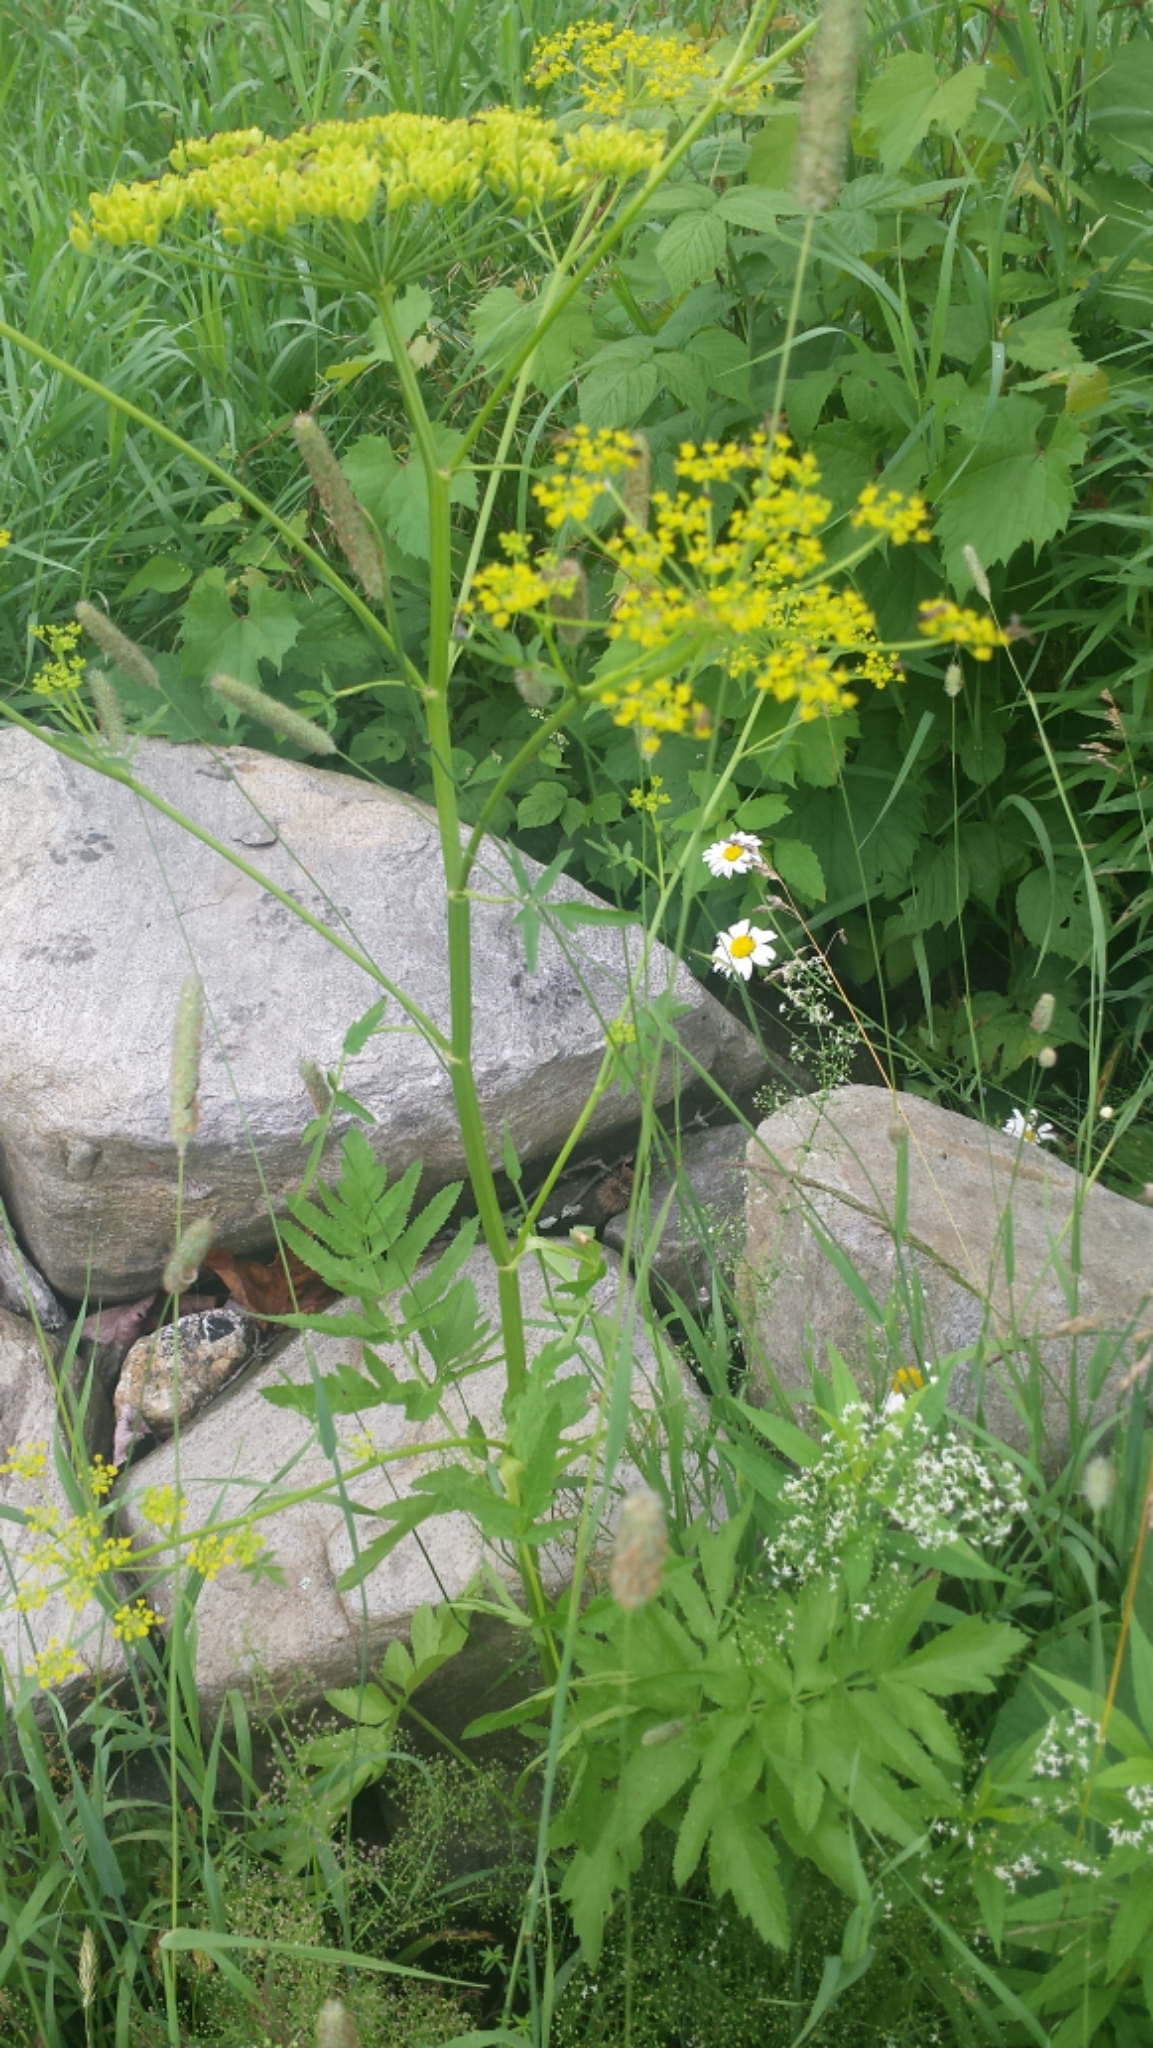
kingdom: Plantae
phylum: Tracheophyta
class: Magnoliopsida
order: Apiales
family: Apiaceae
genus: Pastinaca
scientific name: Pastinaca sativa
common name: Wild parsnip
